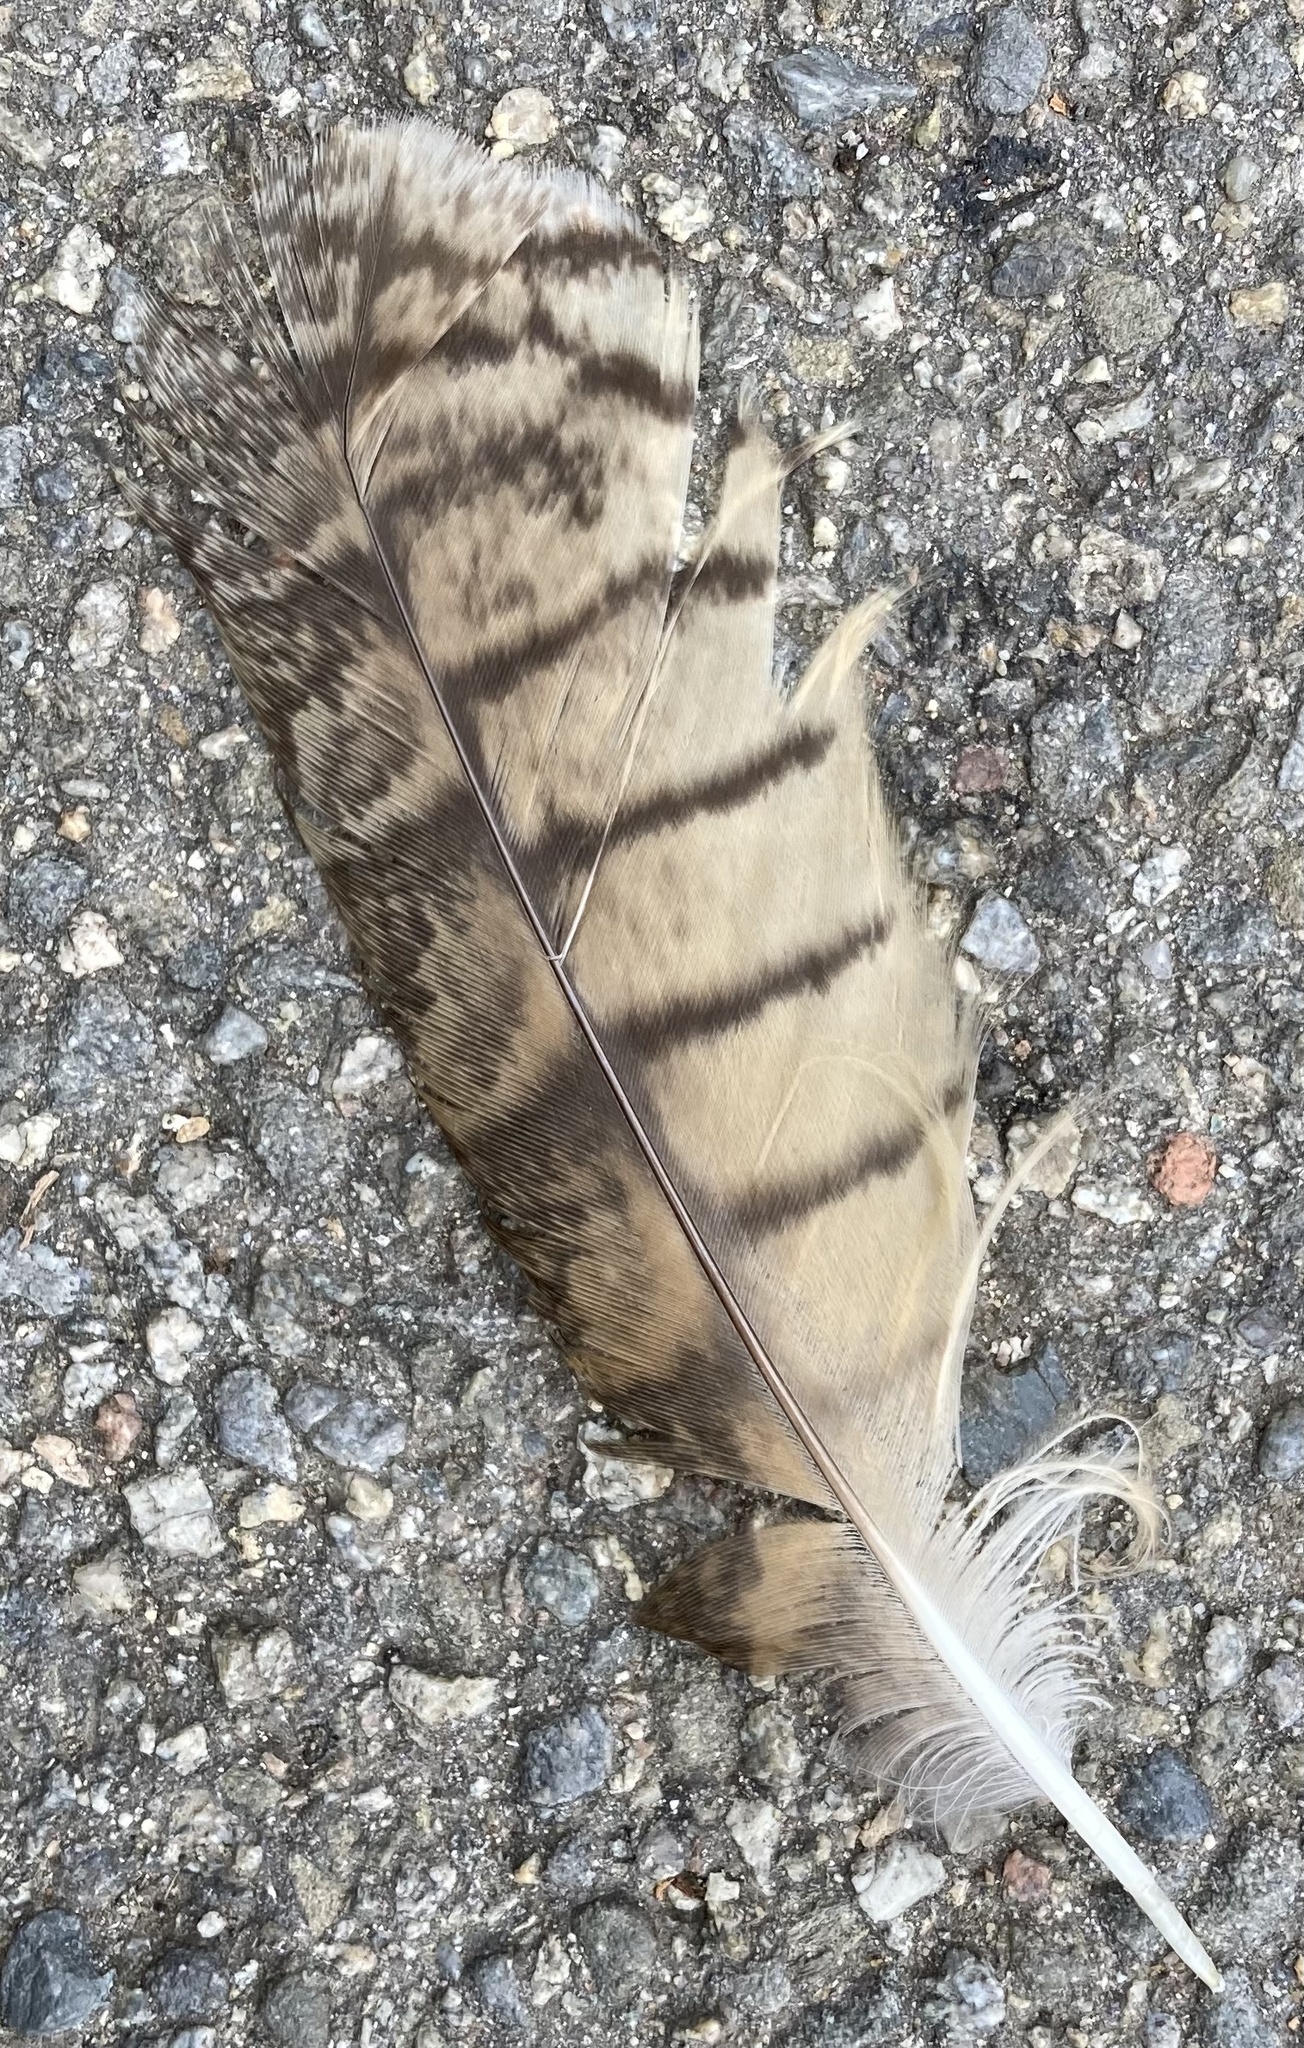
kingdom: Animalia
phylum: Chordata
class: Aves
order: Strigiformes
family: Strigidae
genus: Asio
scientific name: Asio otus
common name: Long-eared owl
